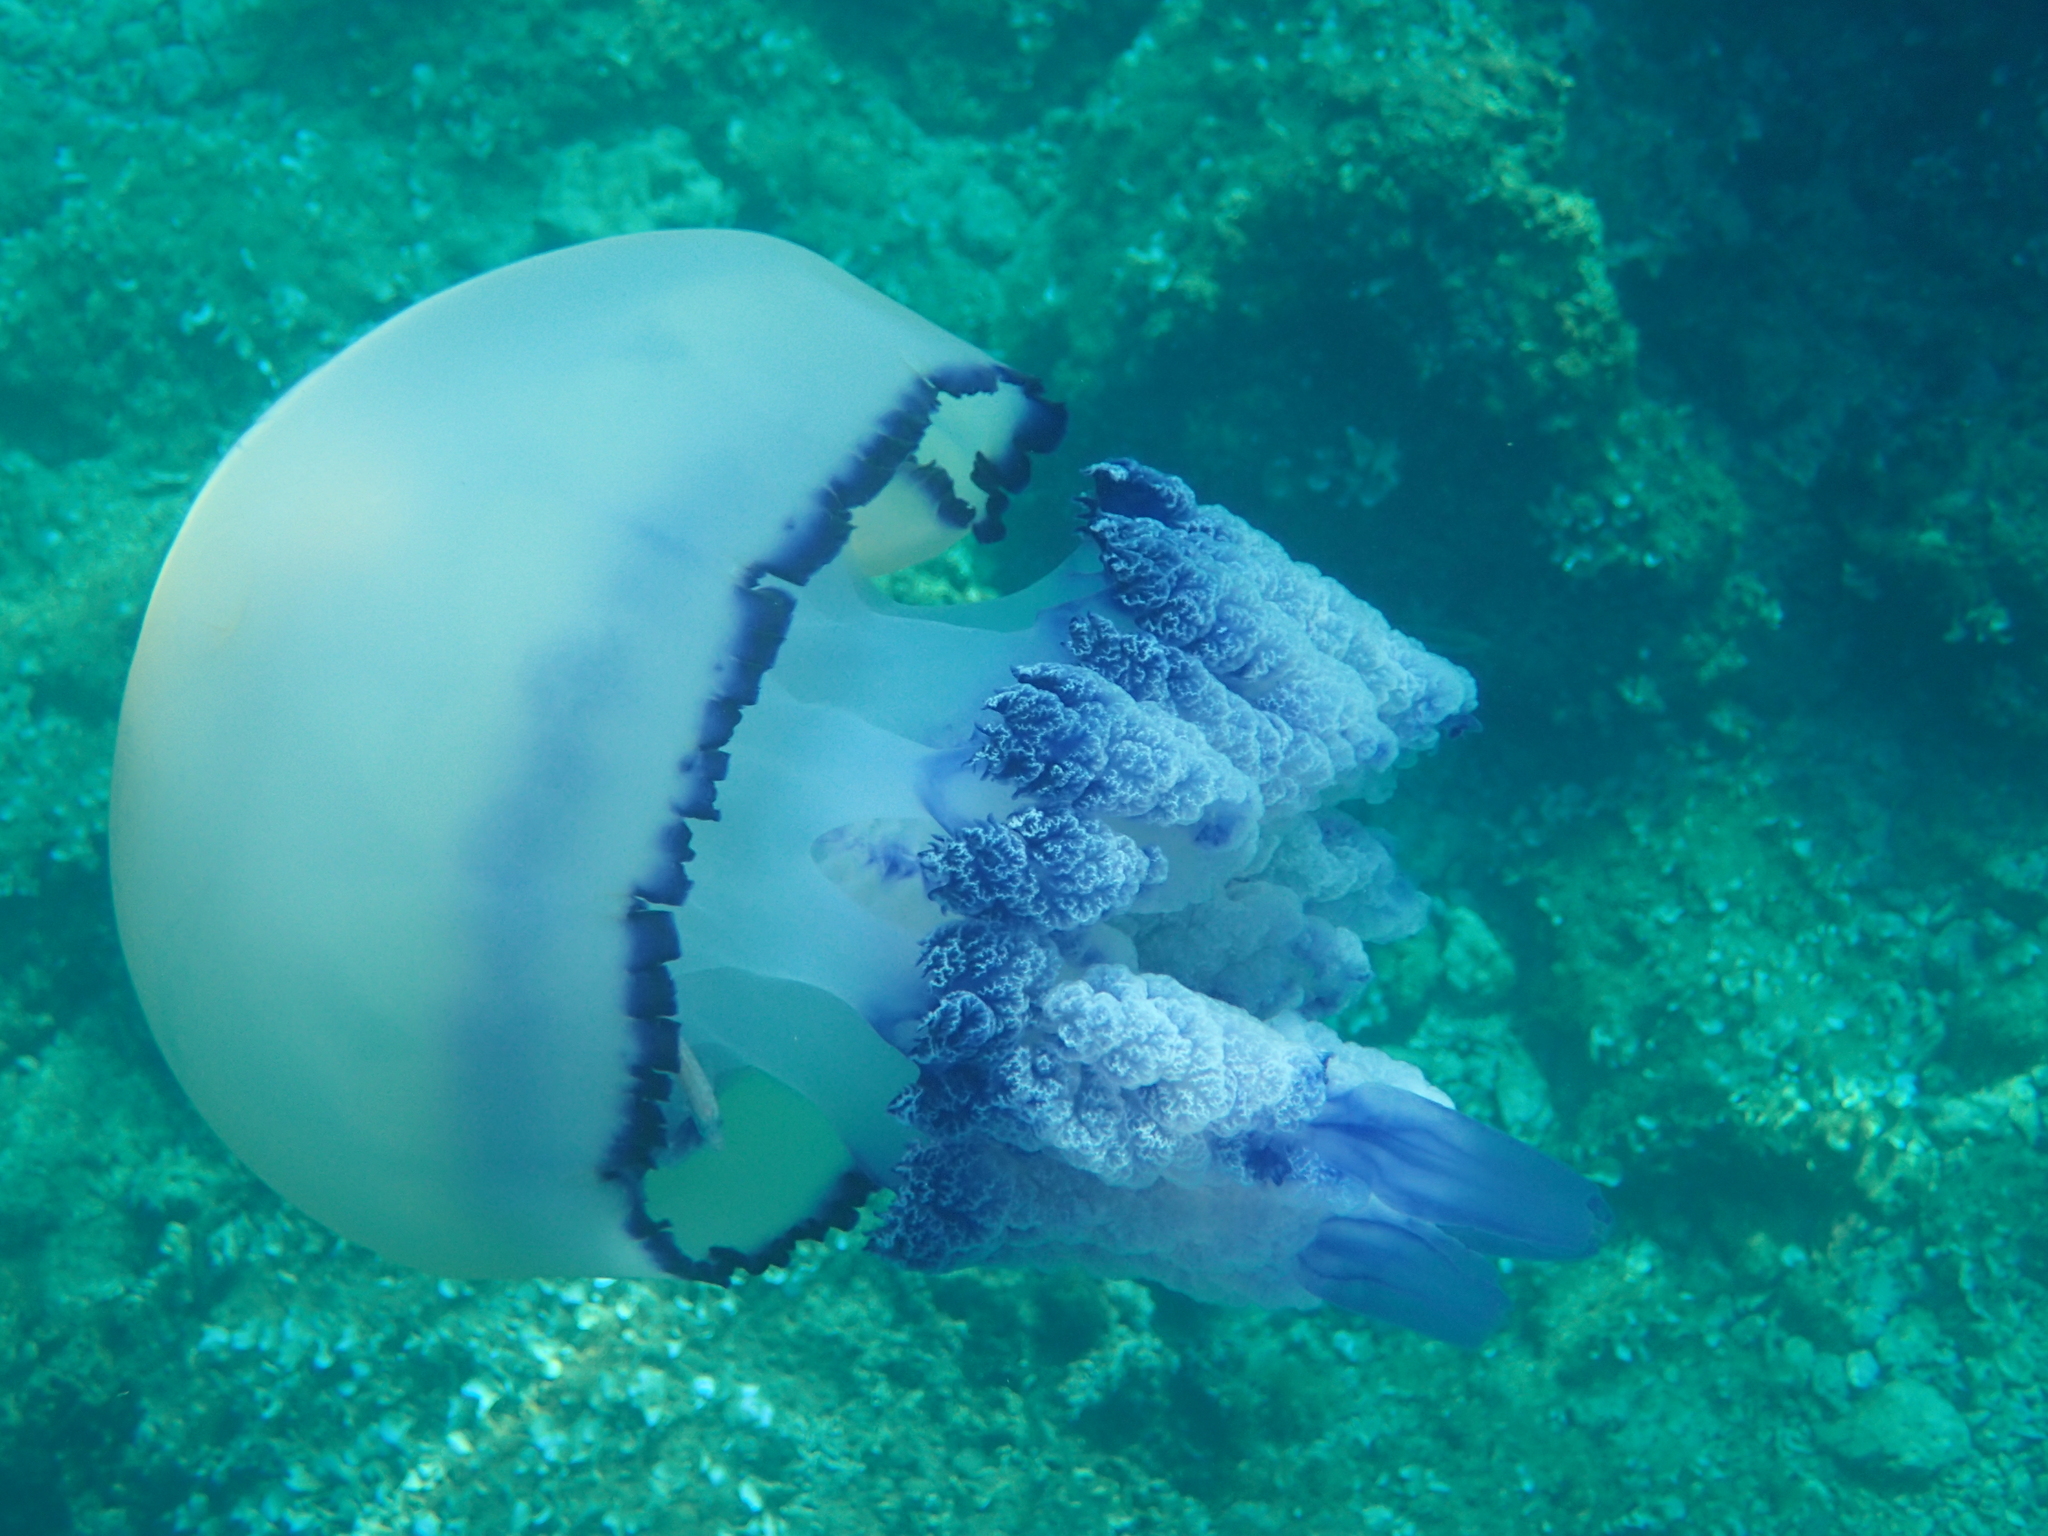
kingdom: Animalia
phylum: Cnidaria
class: Scyphozoa
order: Rhizostomeae
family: Rhizostomatidae
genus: Rhizostoma
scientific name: Rhizostoma pulmo
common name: Barrel jellyfish
